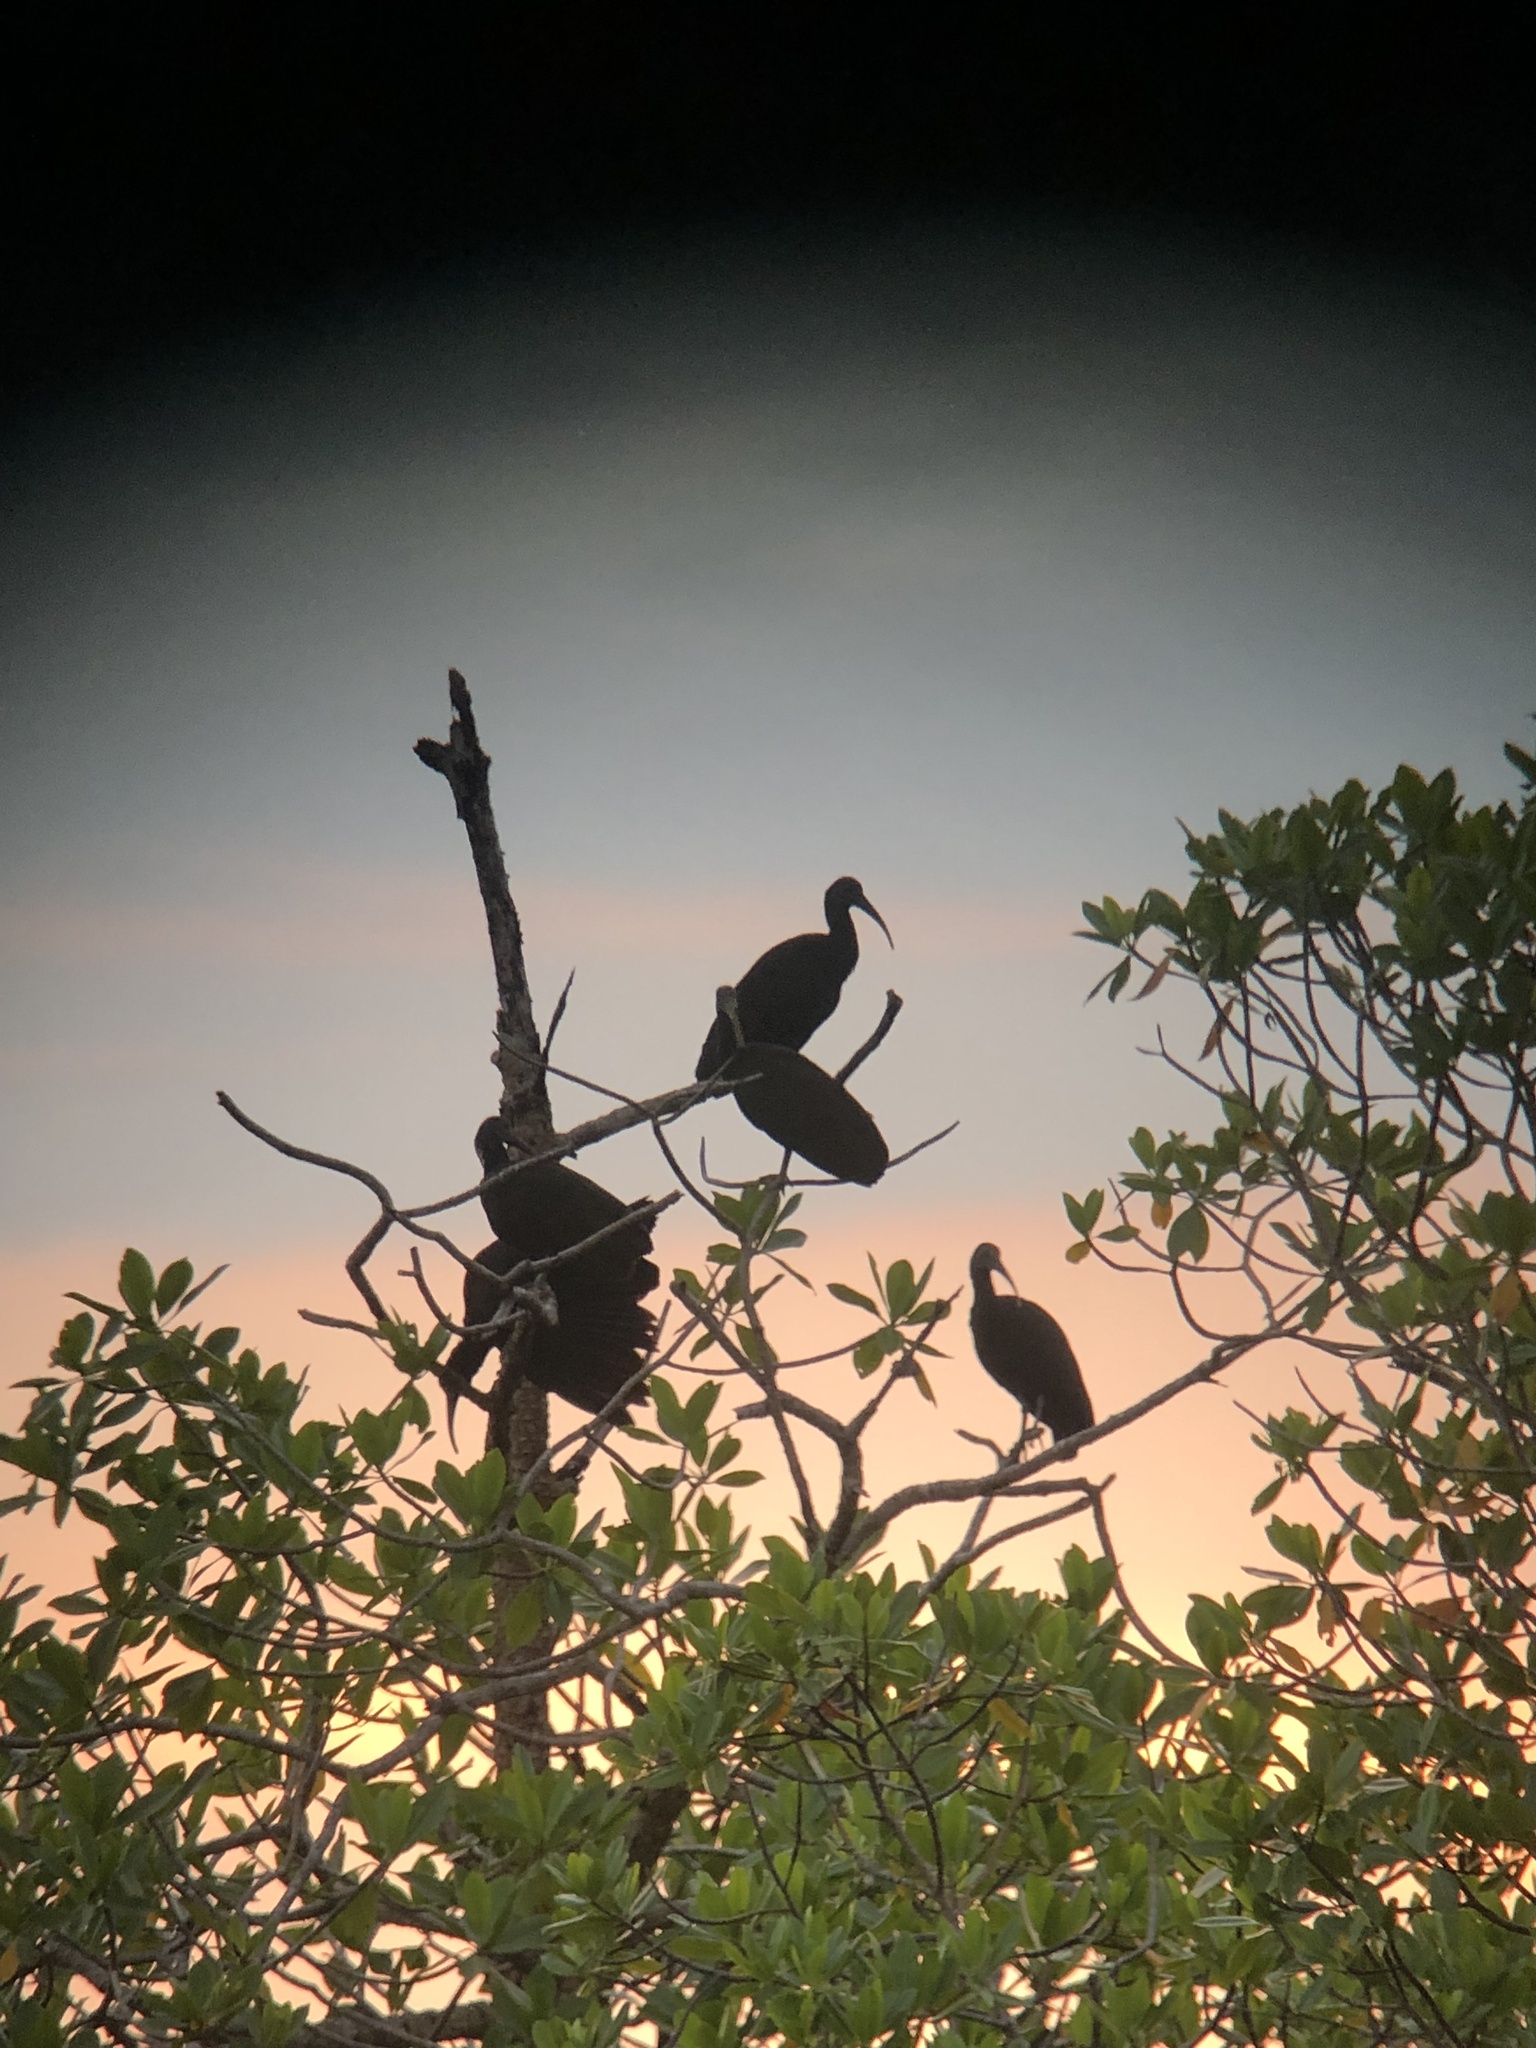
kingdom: Animalia
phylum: Chordata
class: Aves
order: Pelecaniformes
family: Threskiornithidae
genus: Mesembrinibis
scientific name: Mesembrinibis cayennensis
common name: Green ibis
